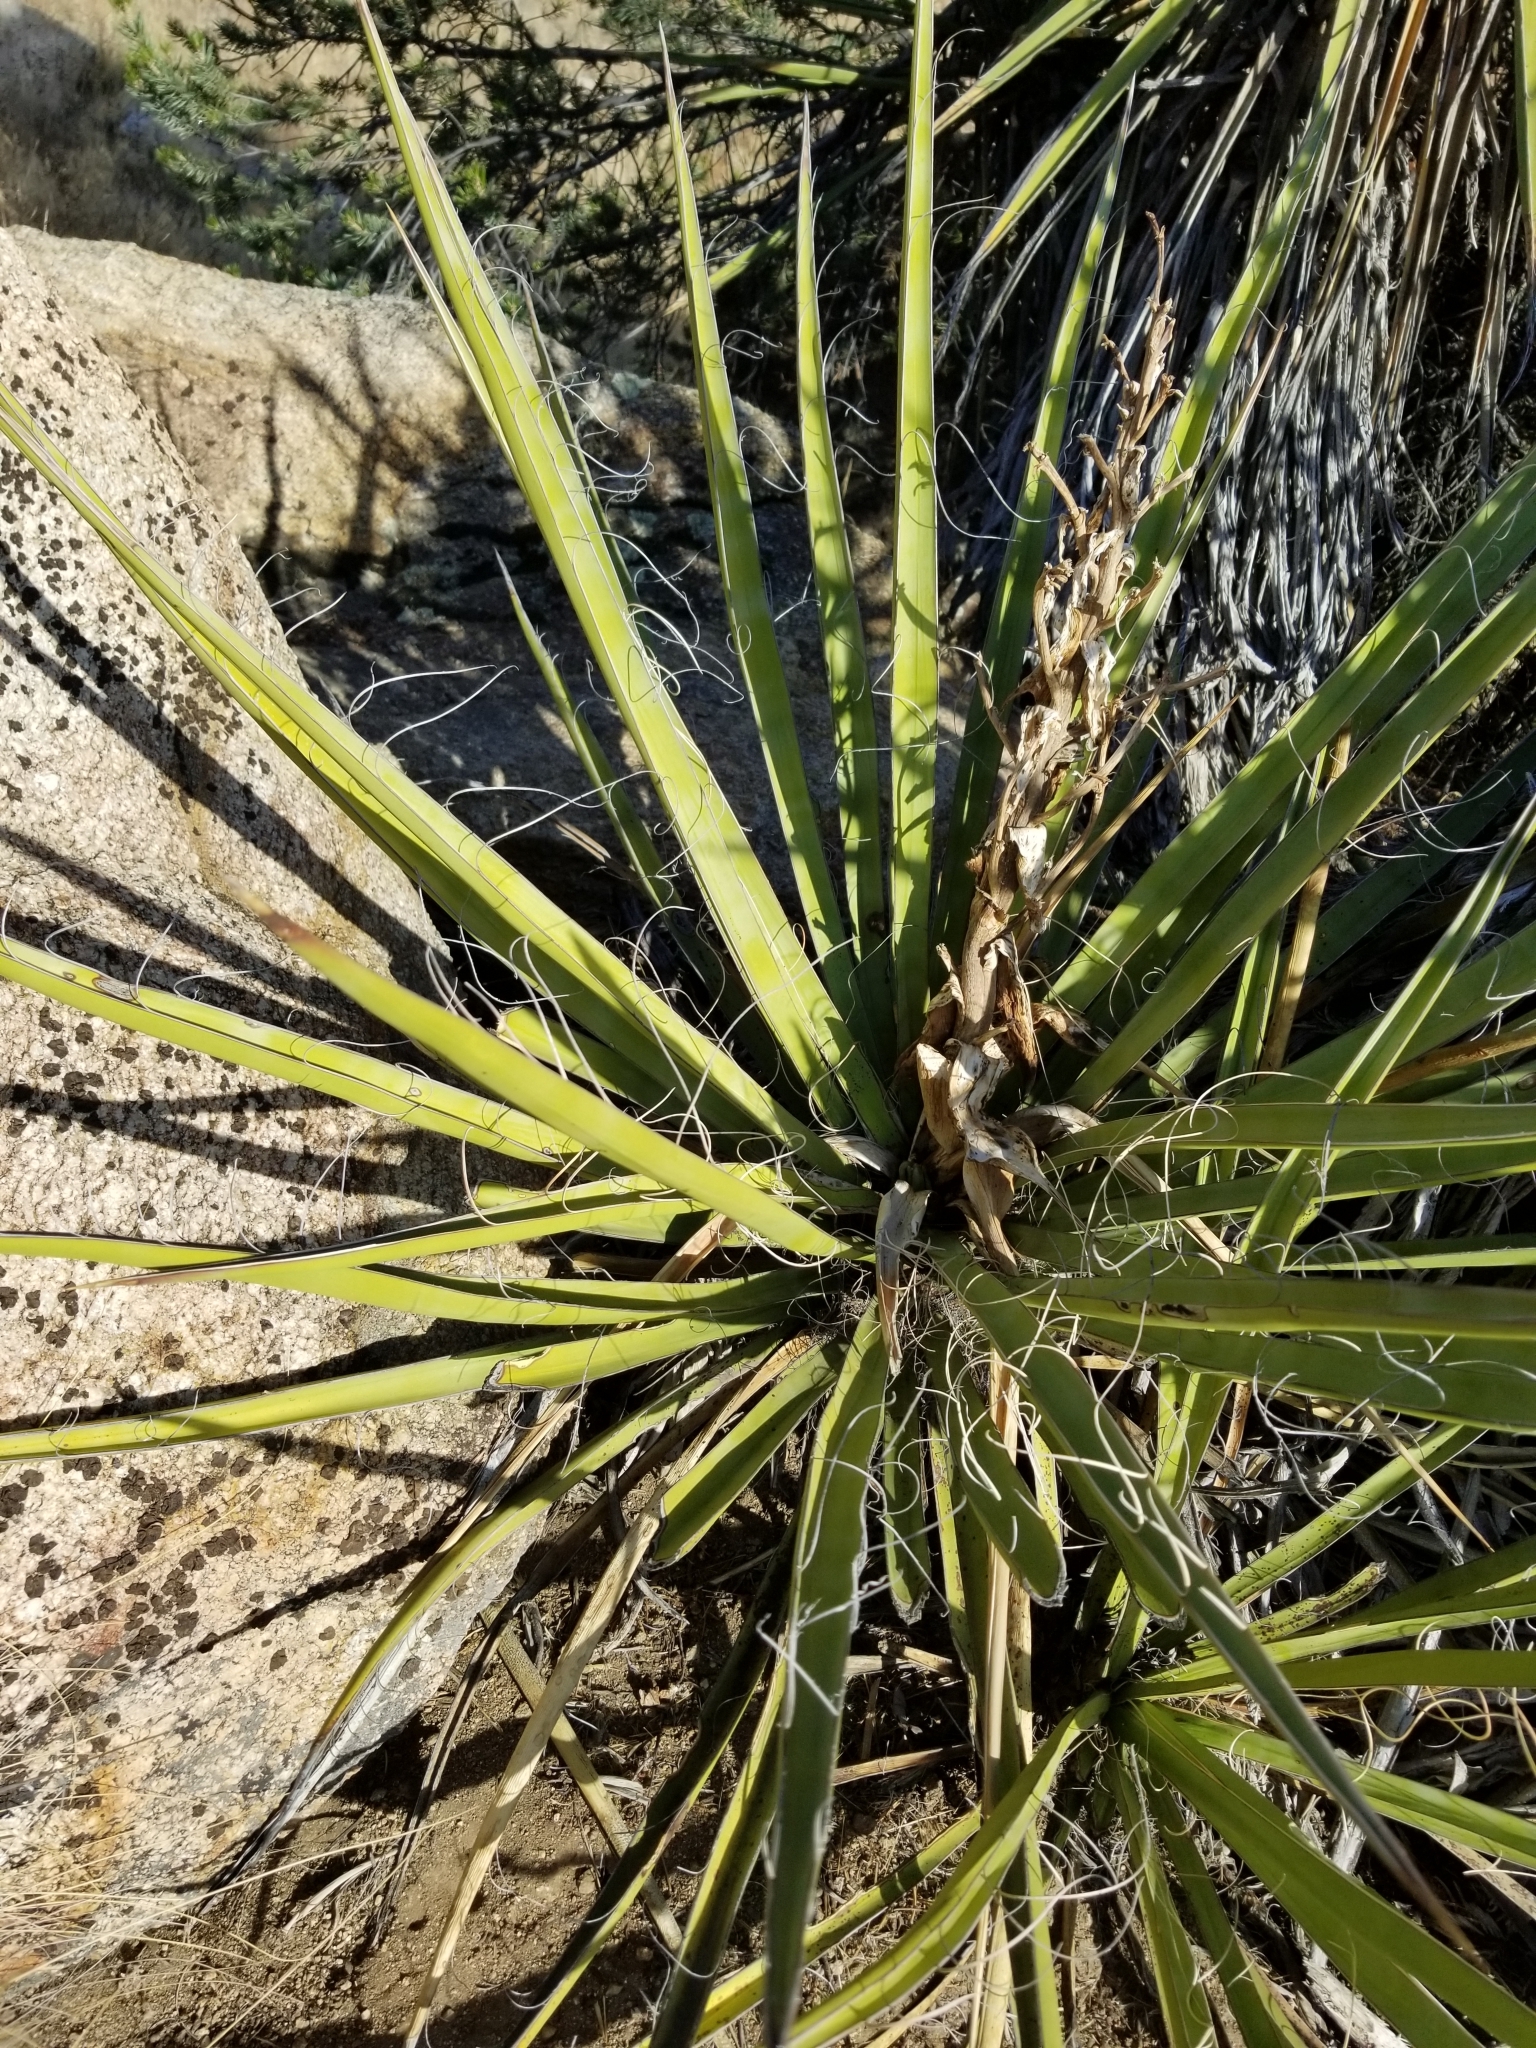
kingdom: Plantae
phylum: Tracheophyta
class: Liliopsida
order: Asparagales
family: Asparagaceae
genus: Yucca
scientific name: Yucca schidigera
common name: Mojave yucca
